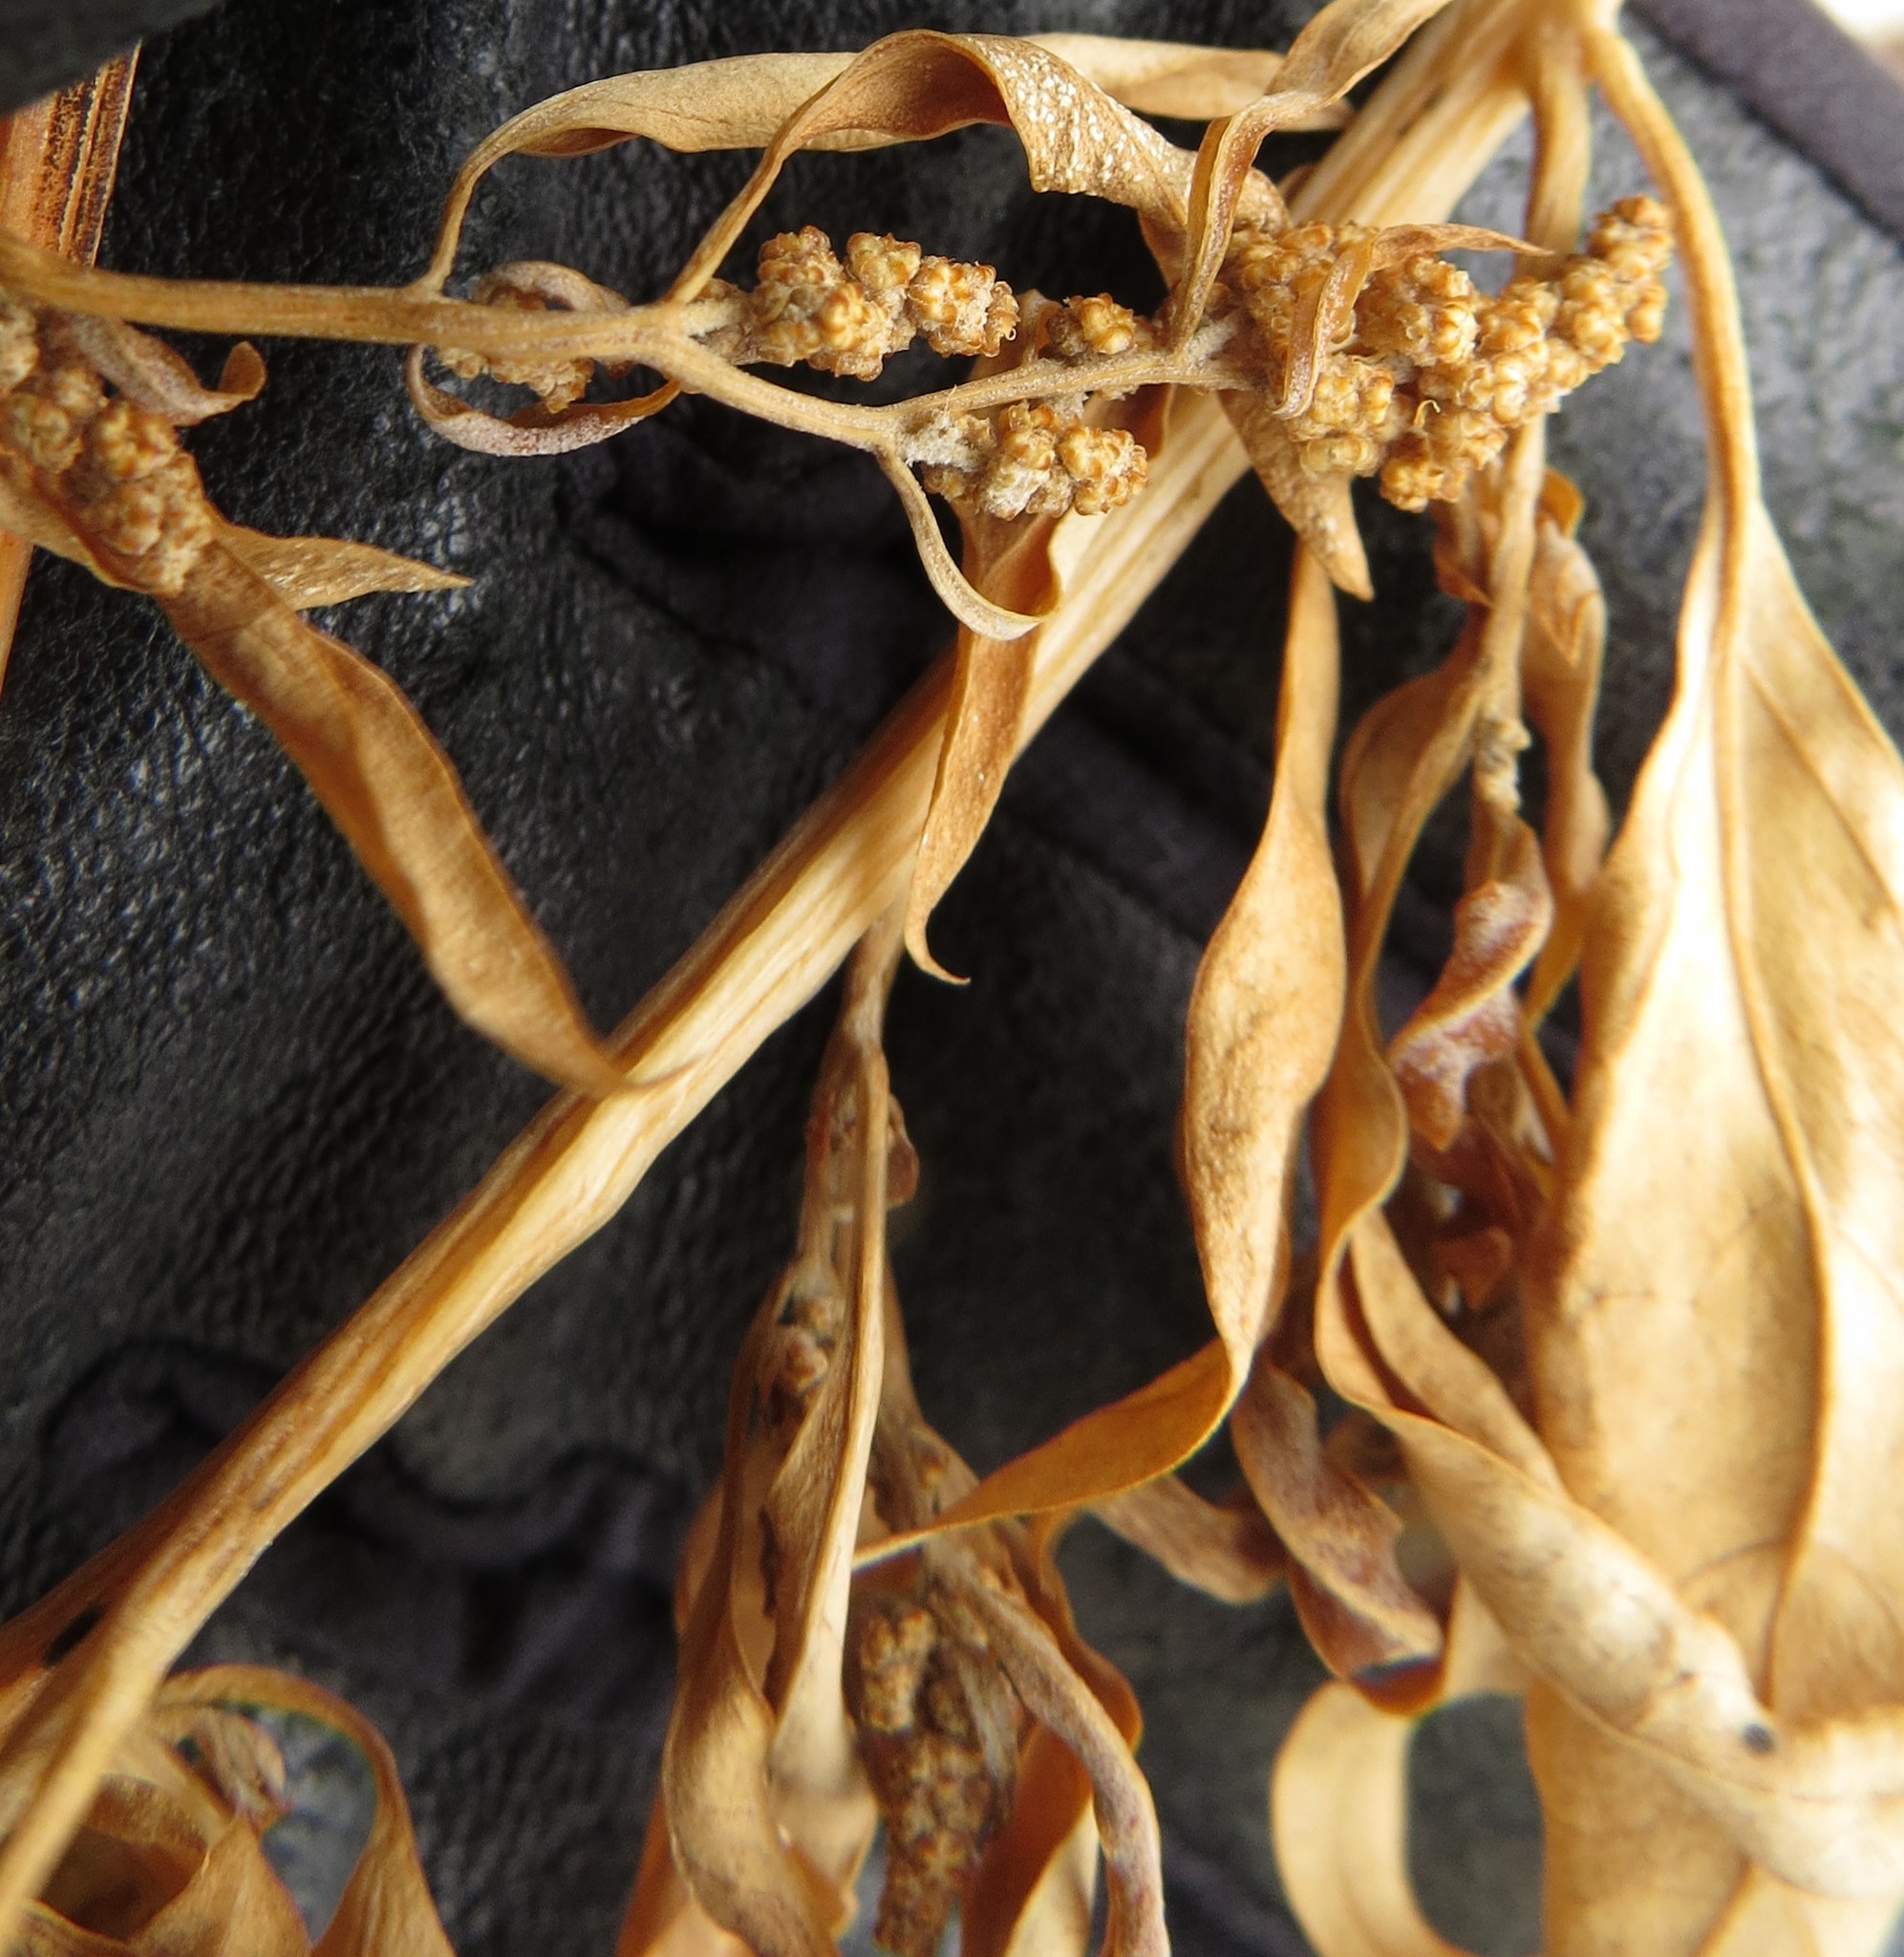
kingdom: Plantae
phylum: Tracheophyta
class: Magnoliopsida
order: Caryophyllales
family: Amaranthaceae
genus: Chenopodium
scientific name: Chenopodium album
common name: Fat-hen
